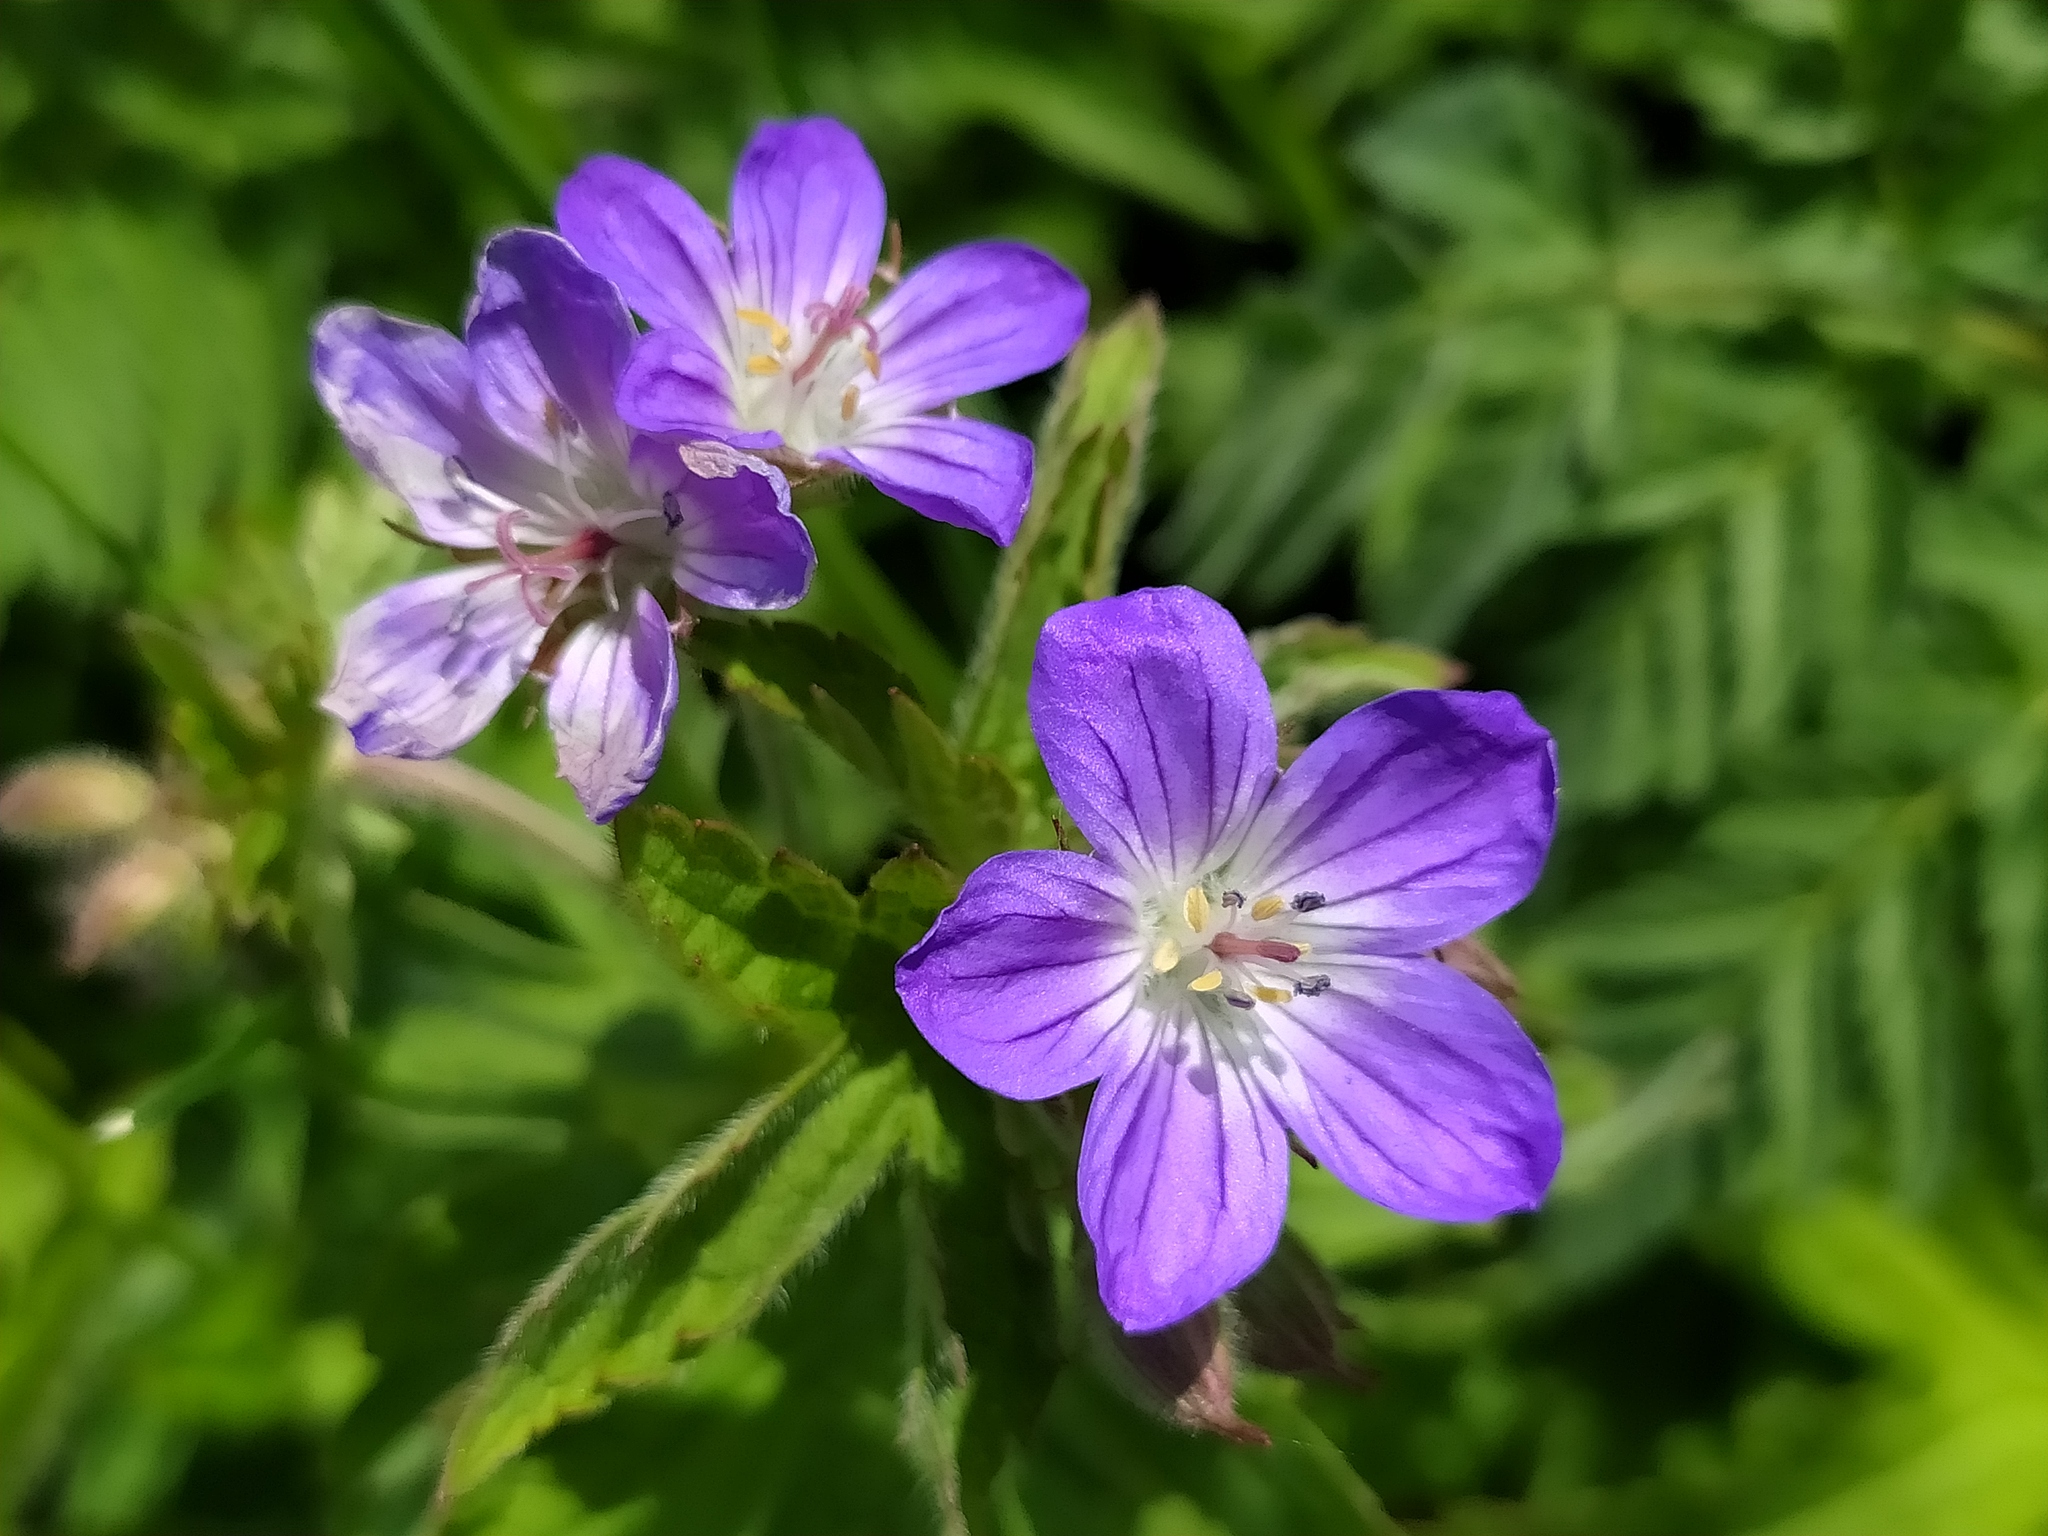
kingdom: Plantae
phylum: Tracheophyta
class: Magnoliopsida
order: Geraniales
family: Geraniaceae
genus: Geranium
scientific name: Geranium sylvaticum
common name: Wood crane's-bill
